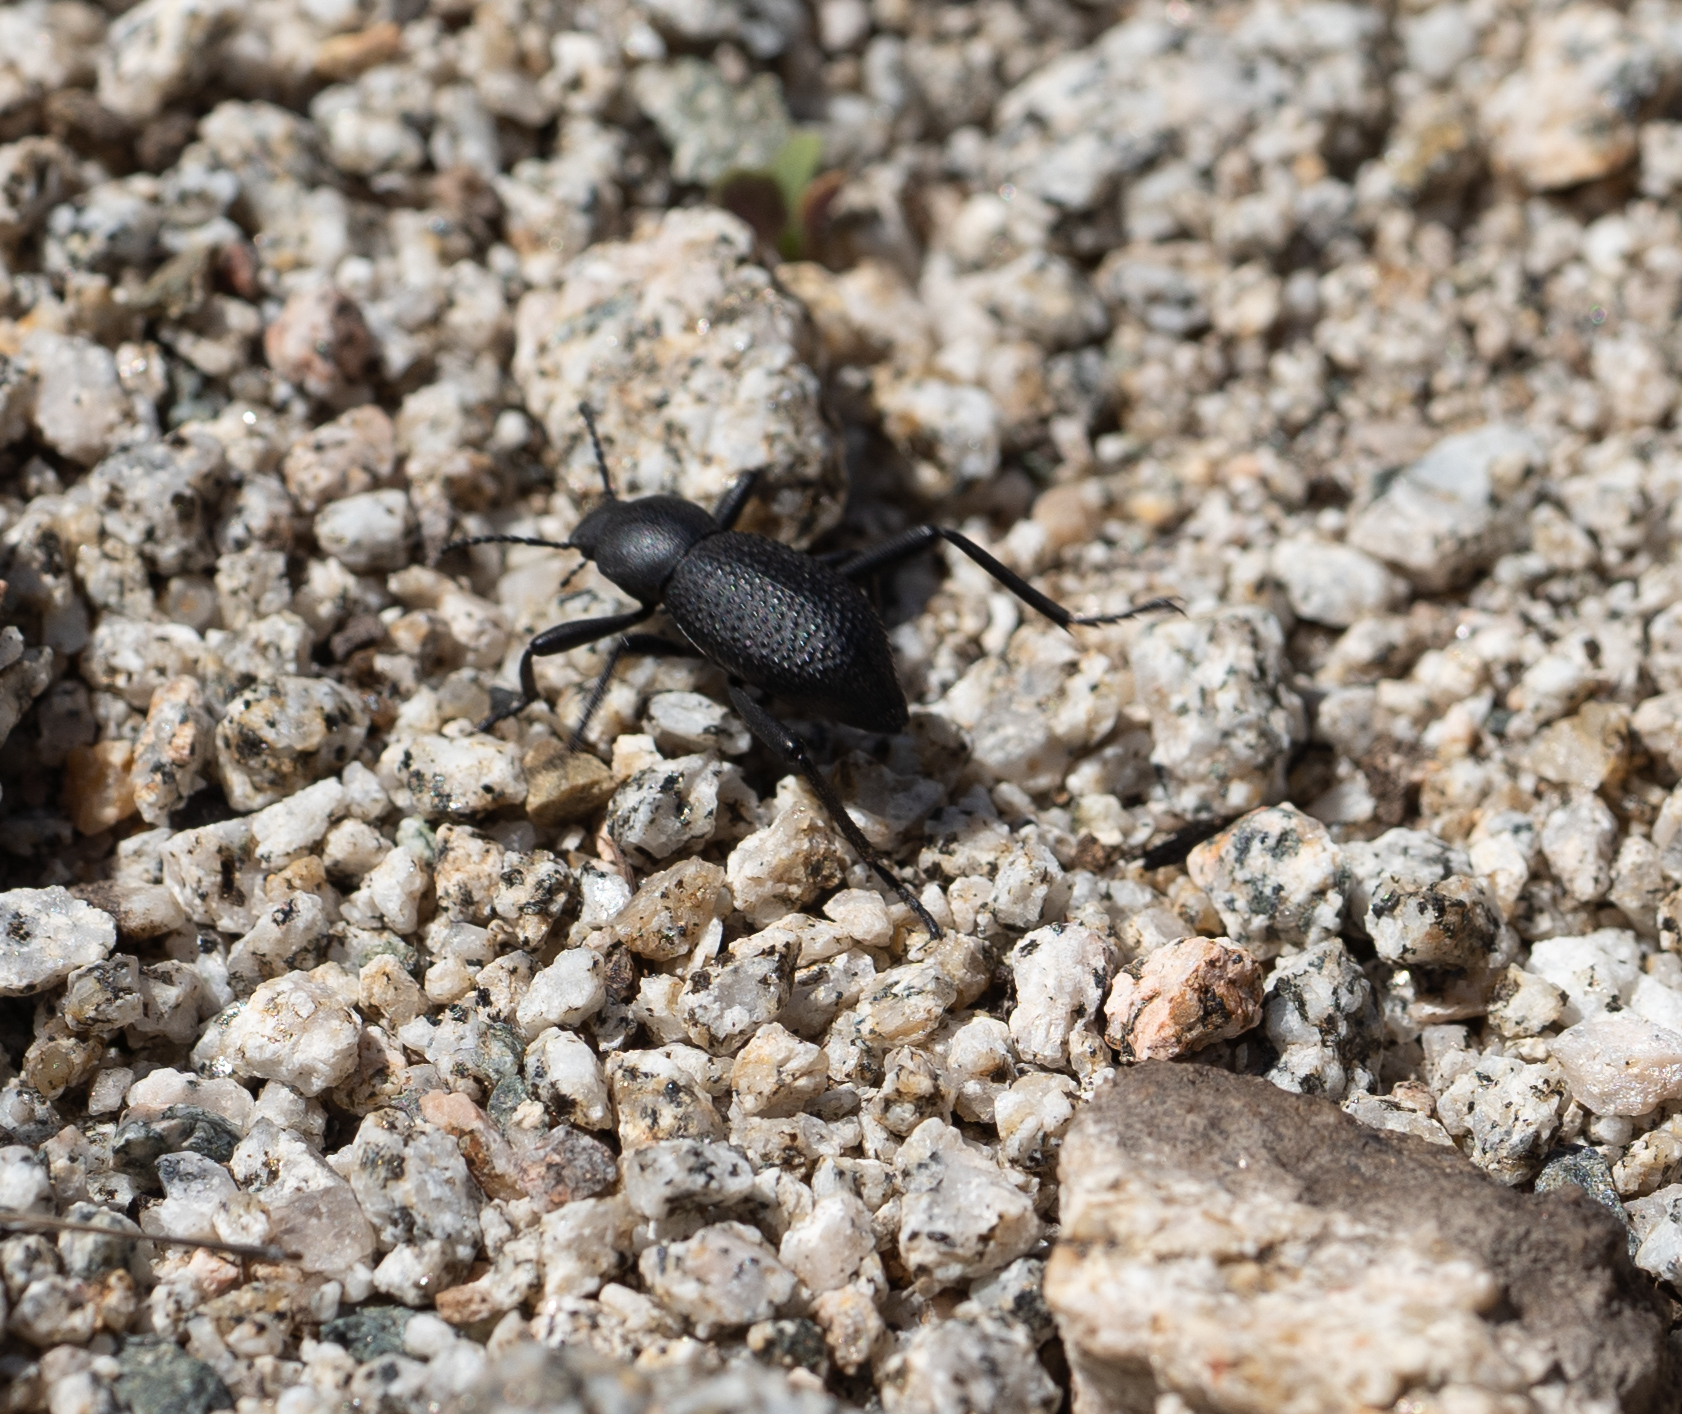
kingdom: Animalia
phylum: Arthropoda
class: Insecta
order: Coleoptera
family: Tenebrionidae
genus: Eleodes
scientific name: Eleodes granosa
